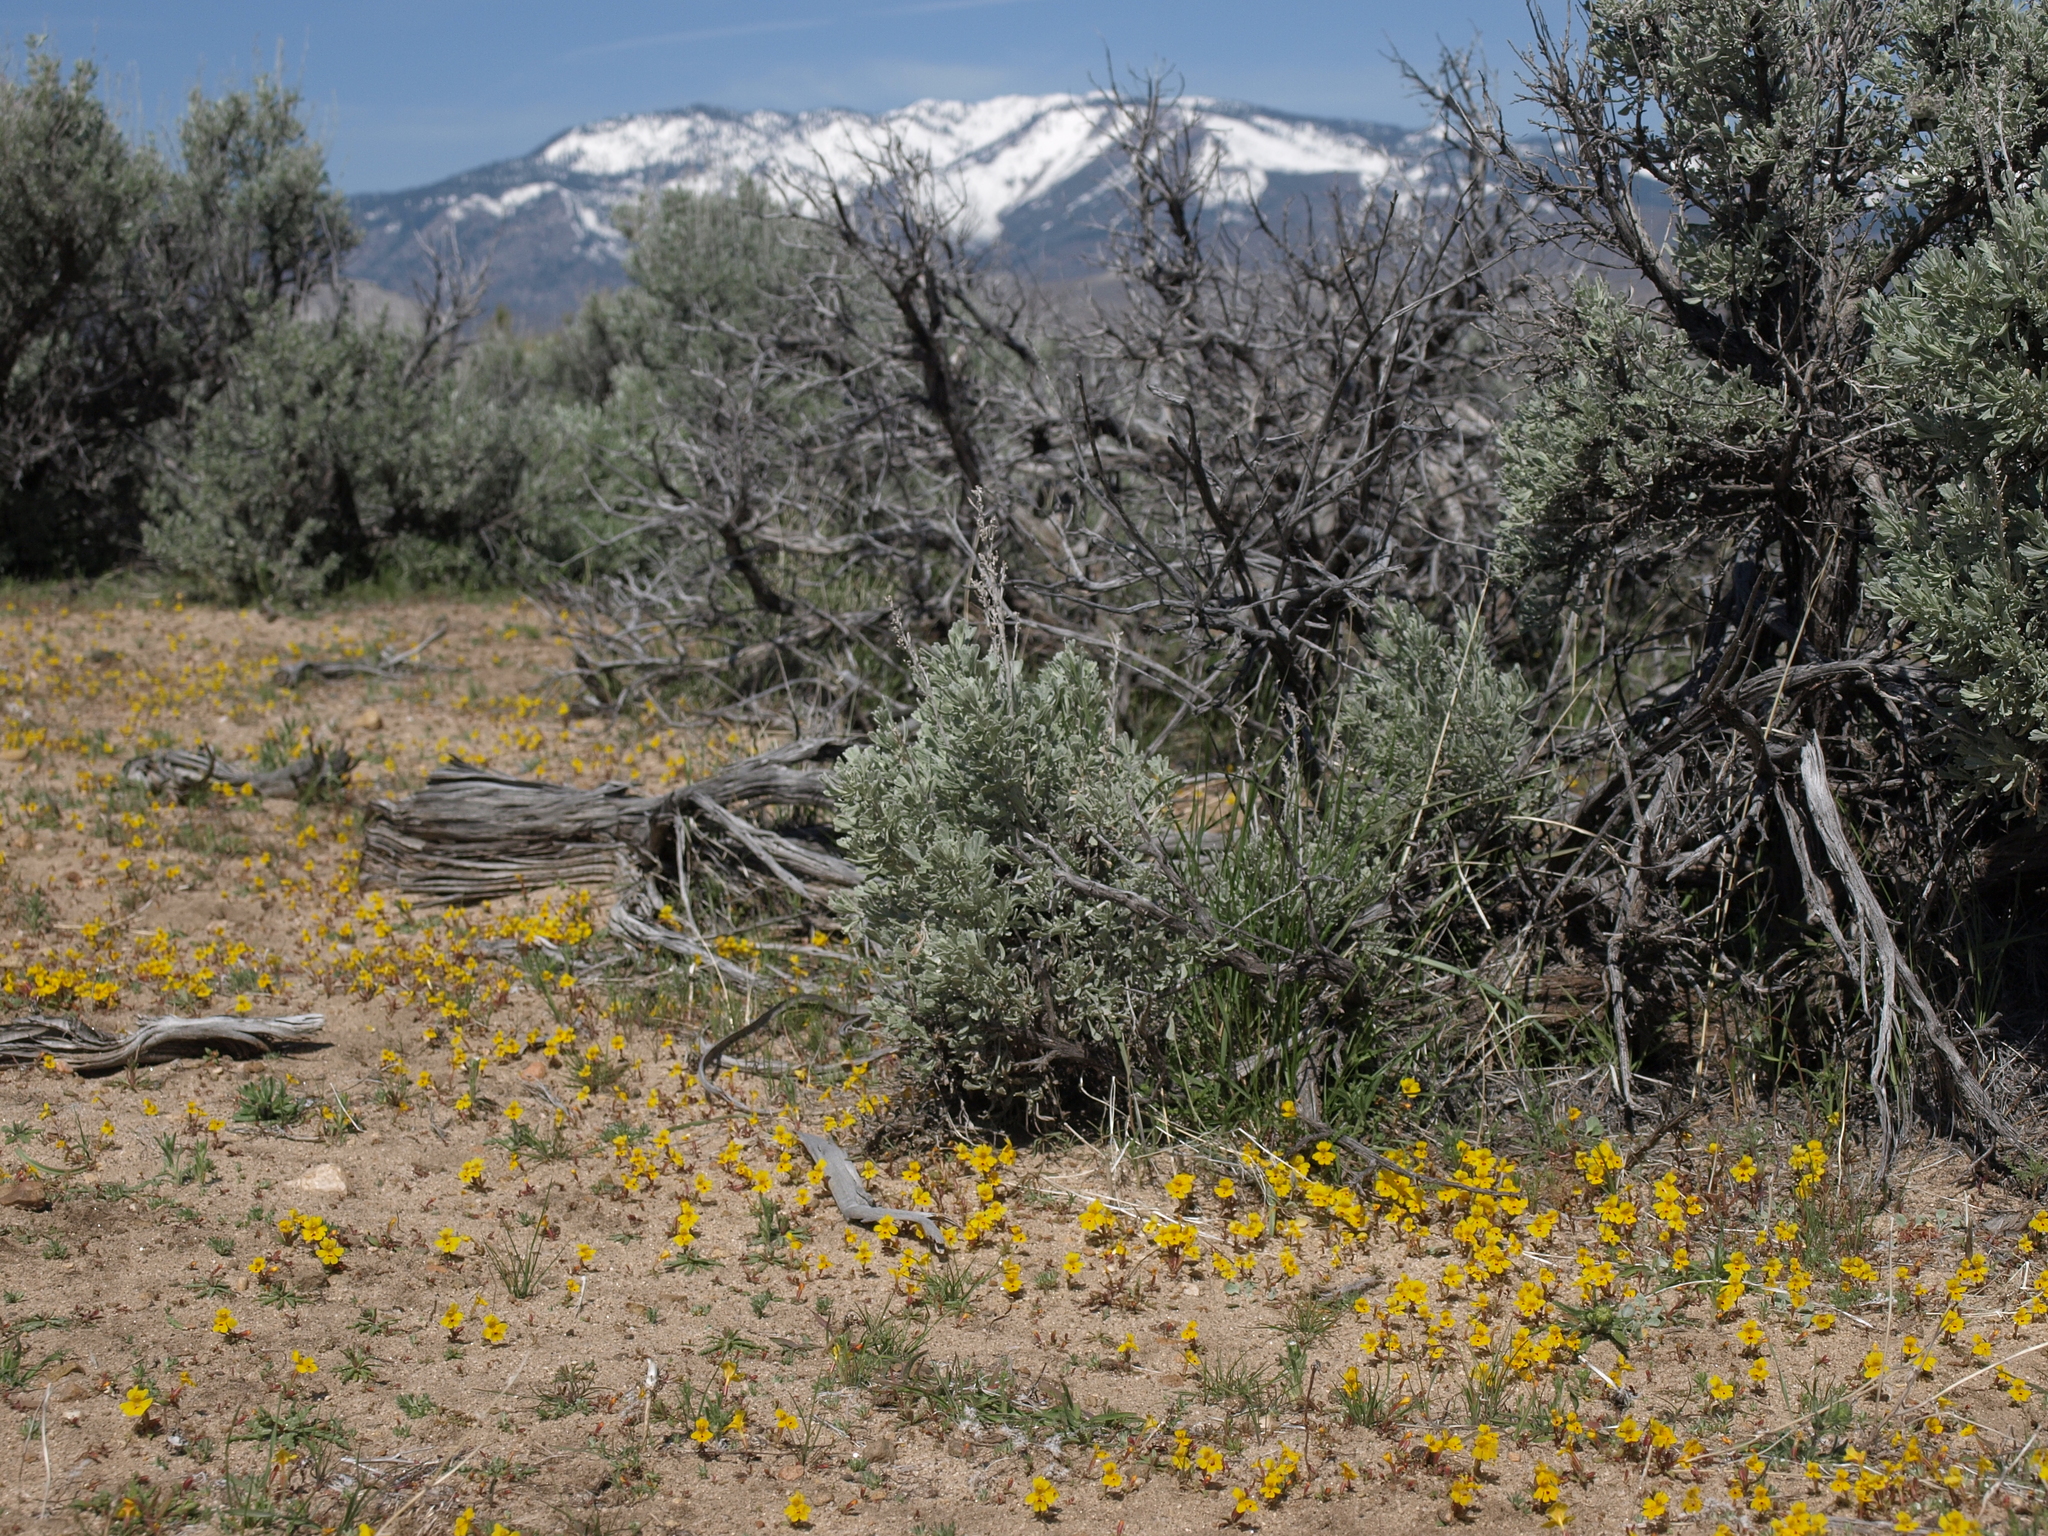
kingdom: Plantae
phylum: Tracheophyta
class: Magnoliopsida
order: Lamiales
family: Phrymaceae
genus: Erythranthe
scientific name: Erythranthe carsonensis
